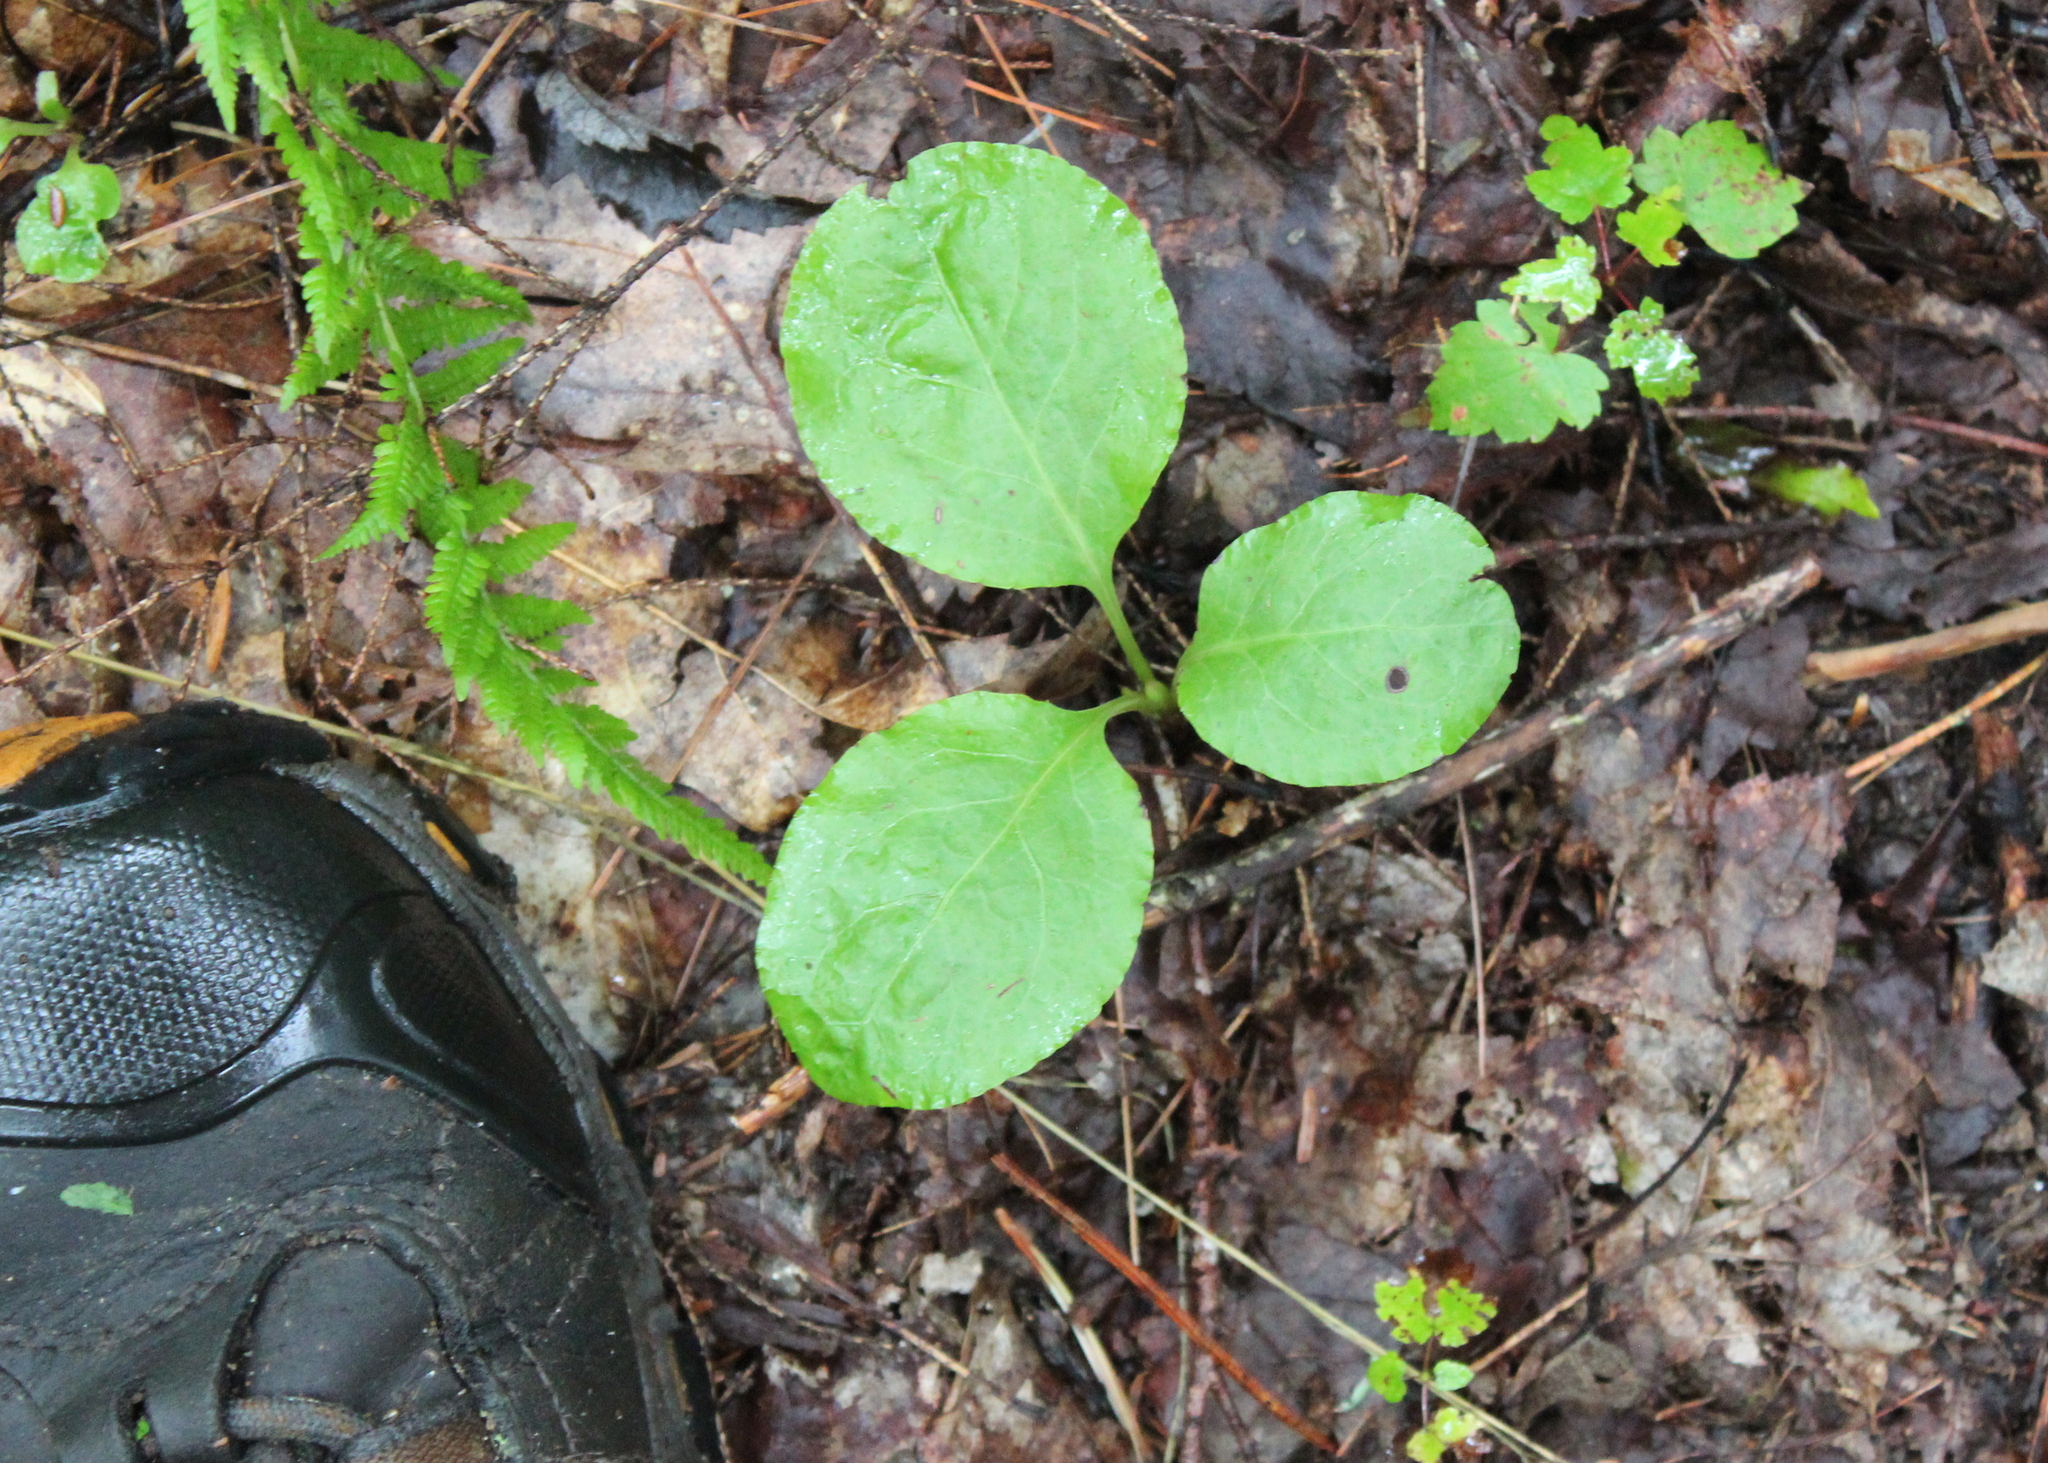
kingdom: Plantae
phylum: Tracheophyta
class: Magnoliopsida
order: Ericales
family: Ericaceae
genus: Pyrola
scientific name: Pyrola elliptica
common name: Shinleaf
